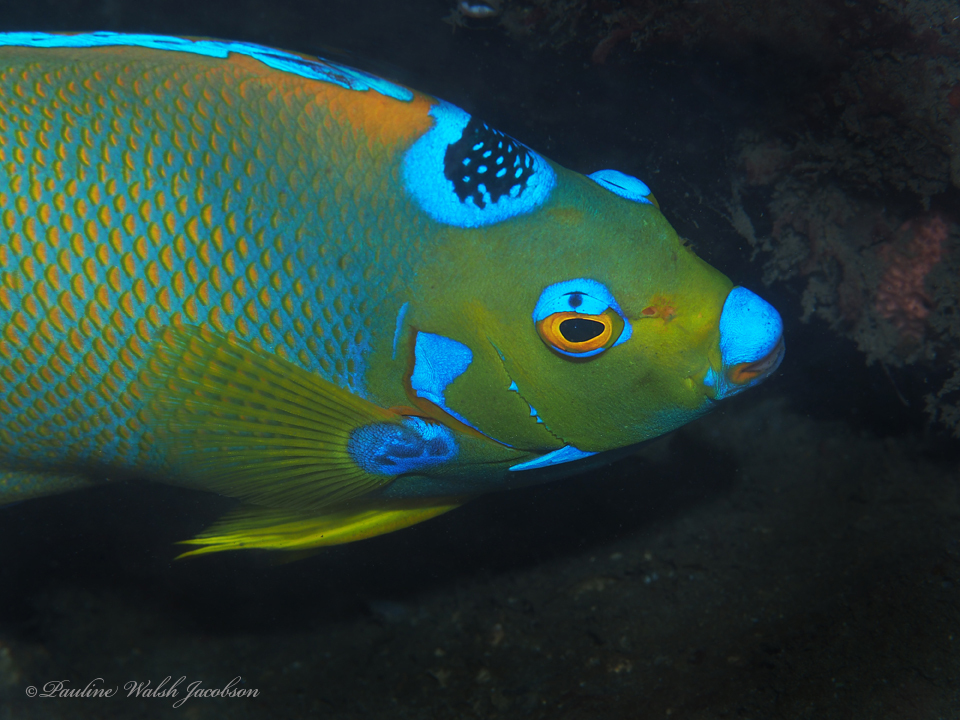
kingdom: Animalia
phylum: Chordata
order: Perciformes
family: Pomacanthidae
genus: Holacanthus
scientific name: Holacanthus ciliaris
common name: Queen angelfish
